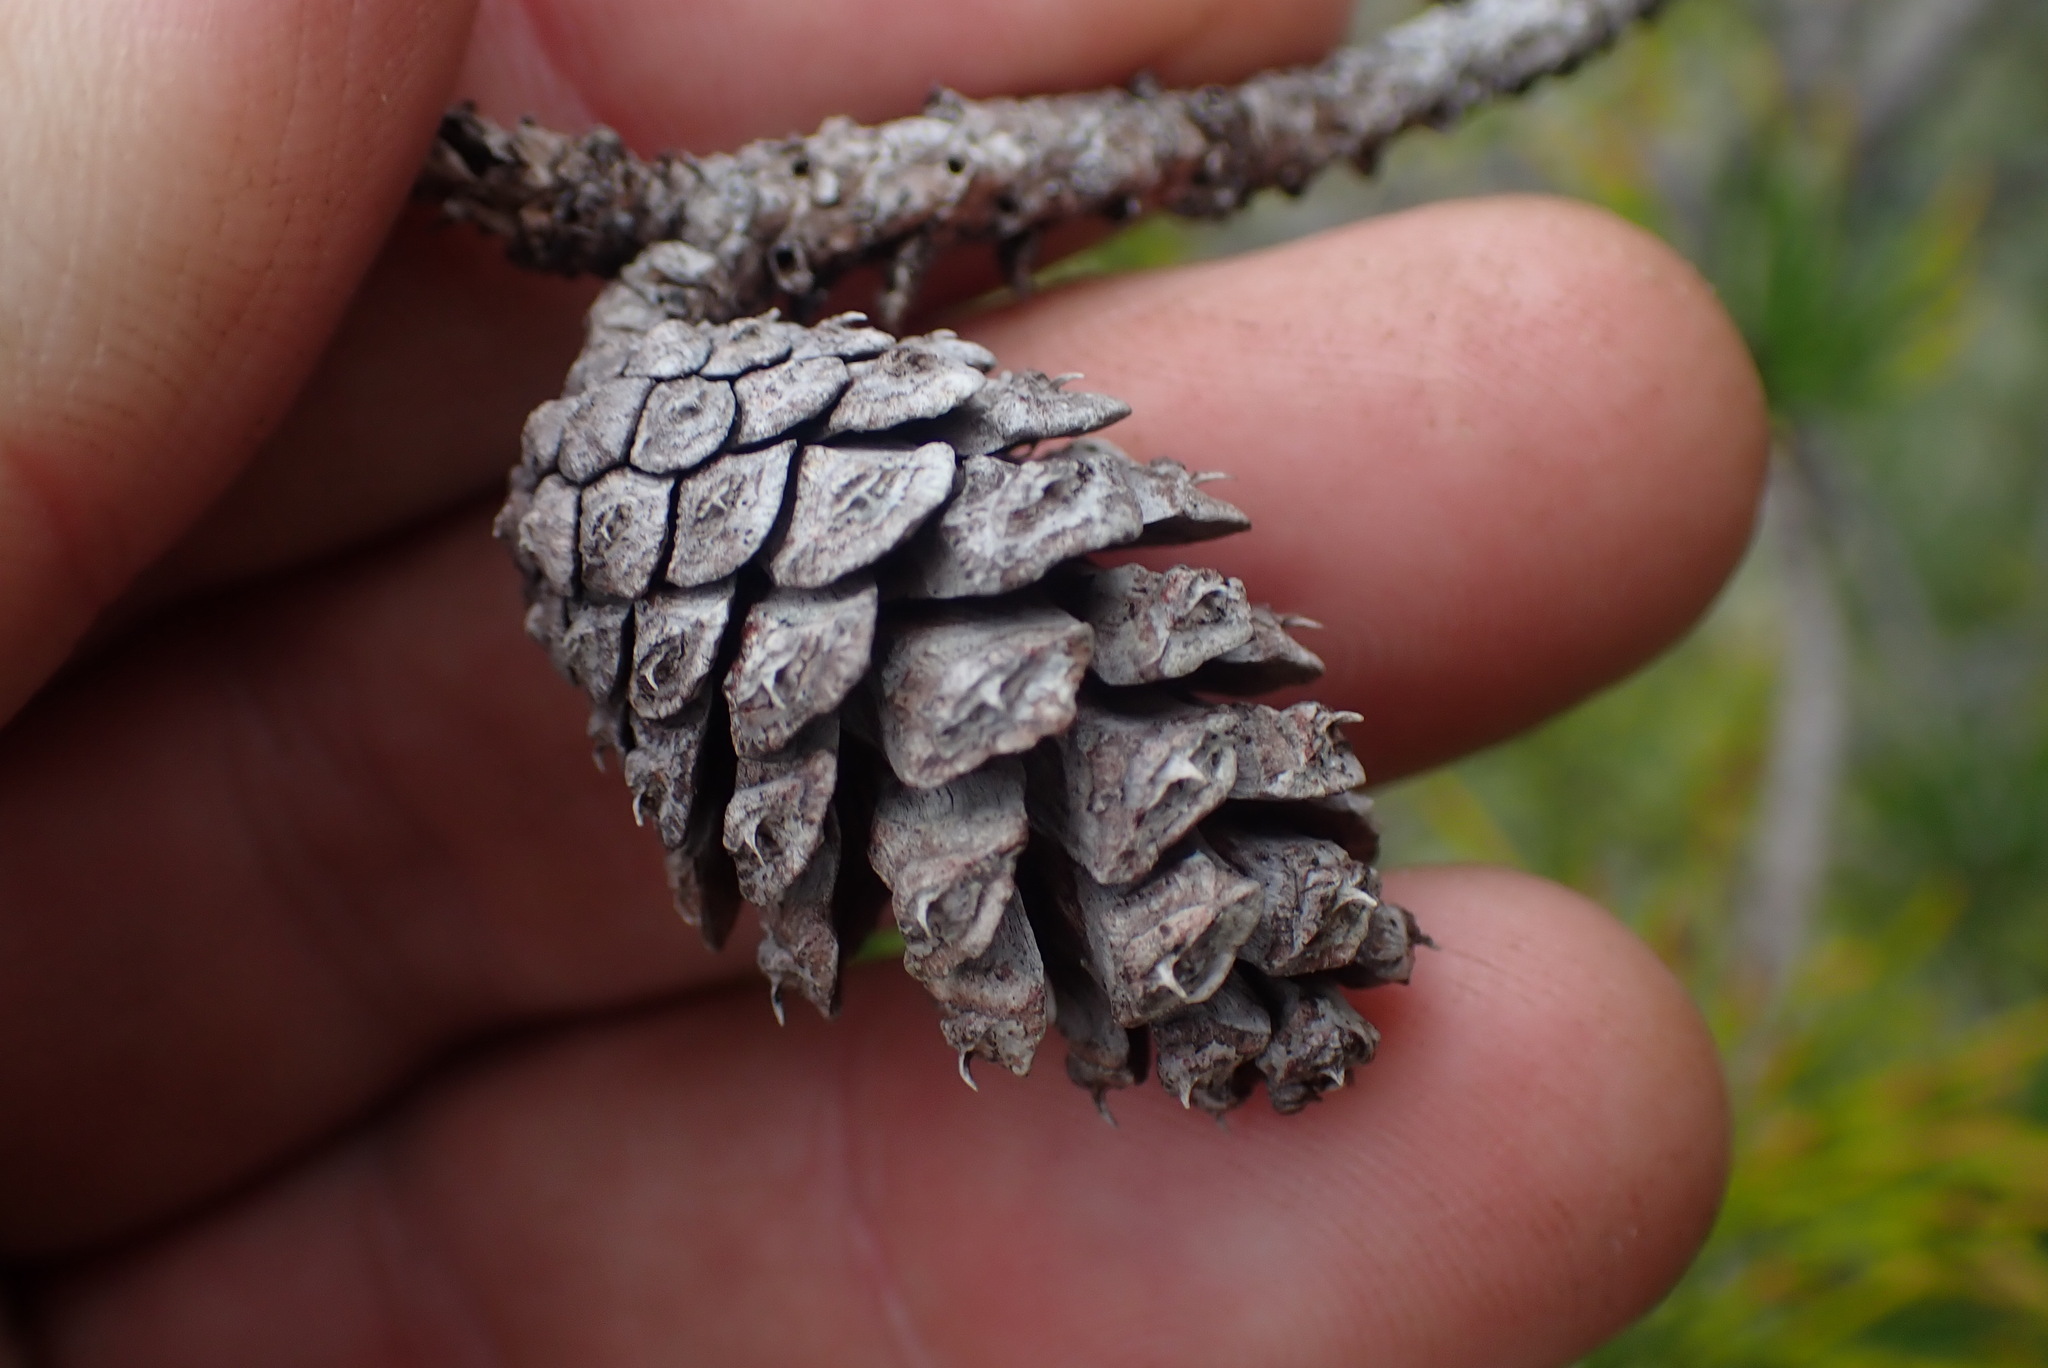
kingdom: Plantae
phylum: Tracheophyta
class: Pinopsida
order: Pinales
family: Pinaceae
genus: Pinus
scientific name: Pinus contorta
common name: Lodgepole pine
